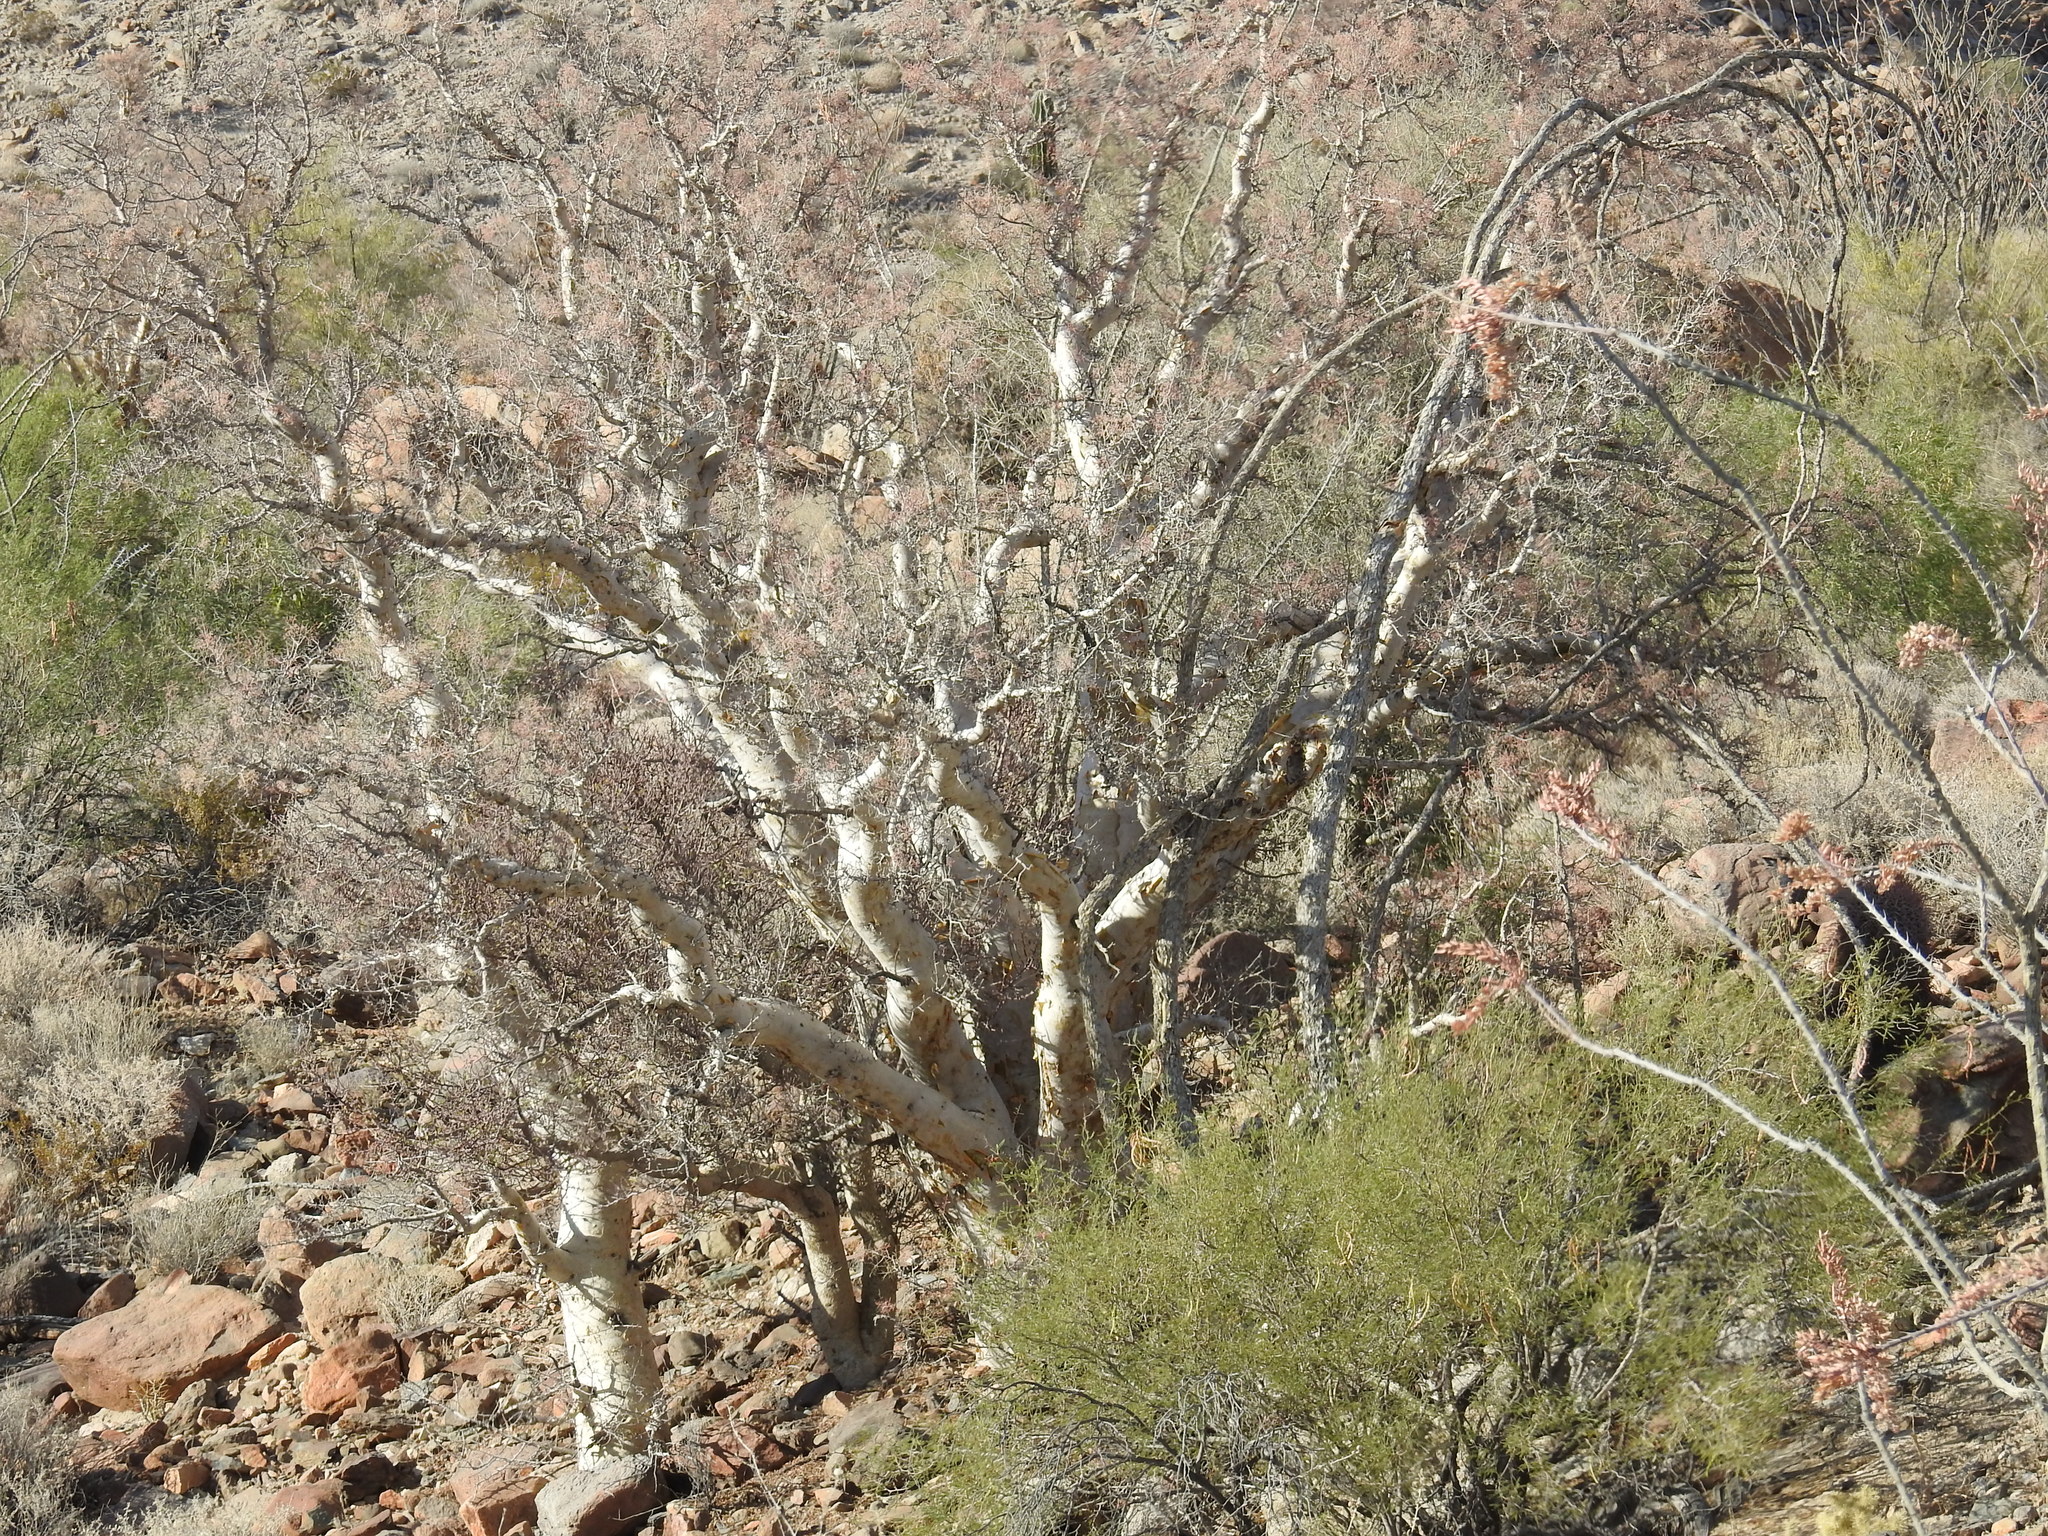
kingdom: Plantae
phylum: Tracheophyta
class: Magnoliopsida
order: Sapindales
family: Anacardiaceae
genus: Pachycormus
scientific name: Pachycormus discolor
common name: Succulent elephant trees
